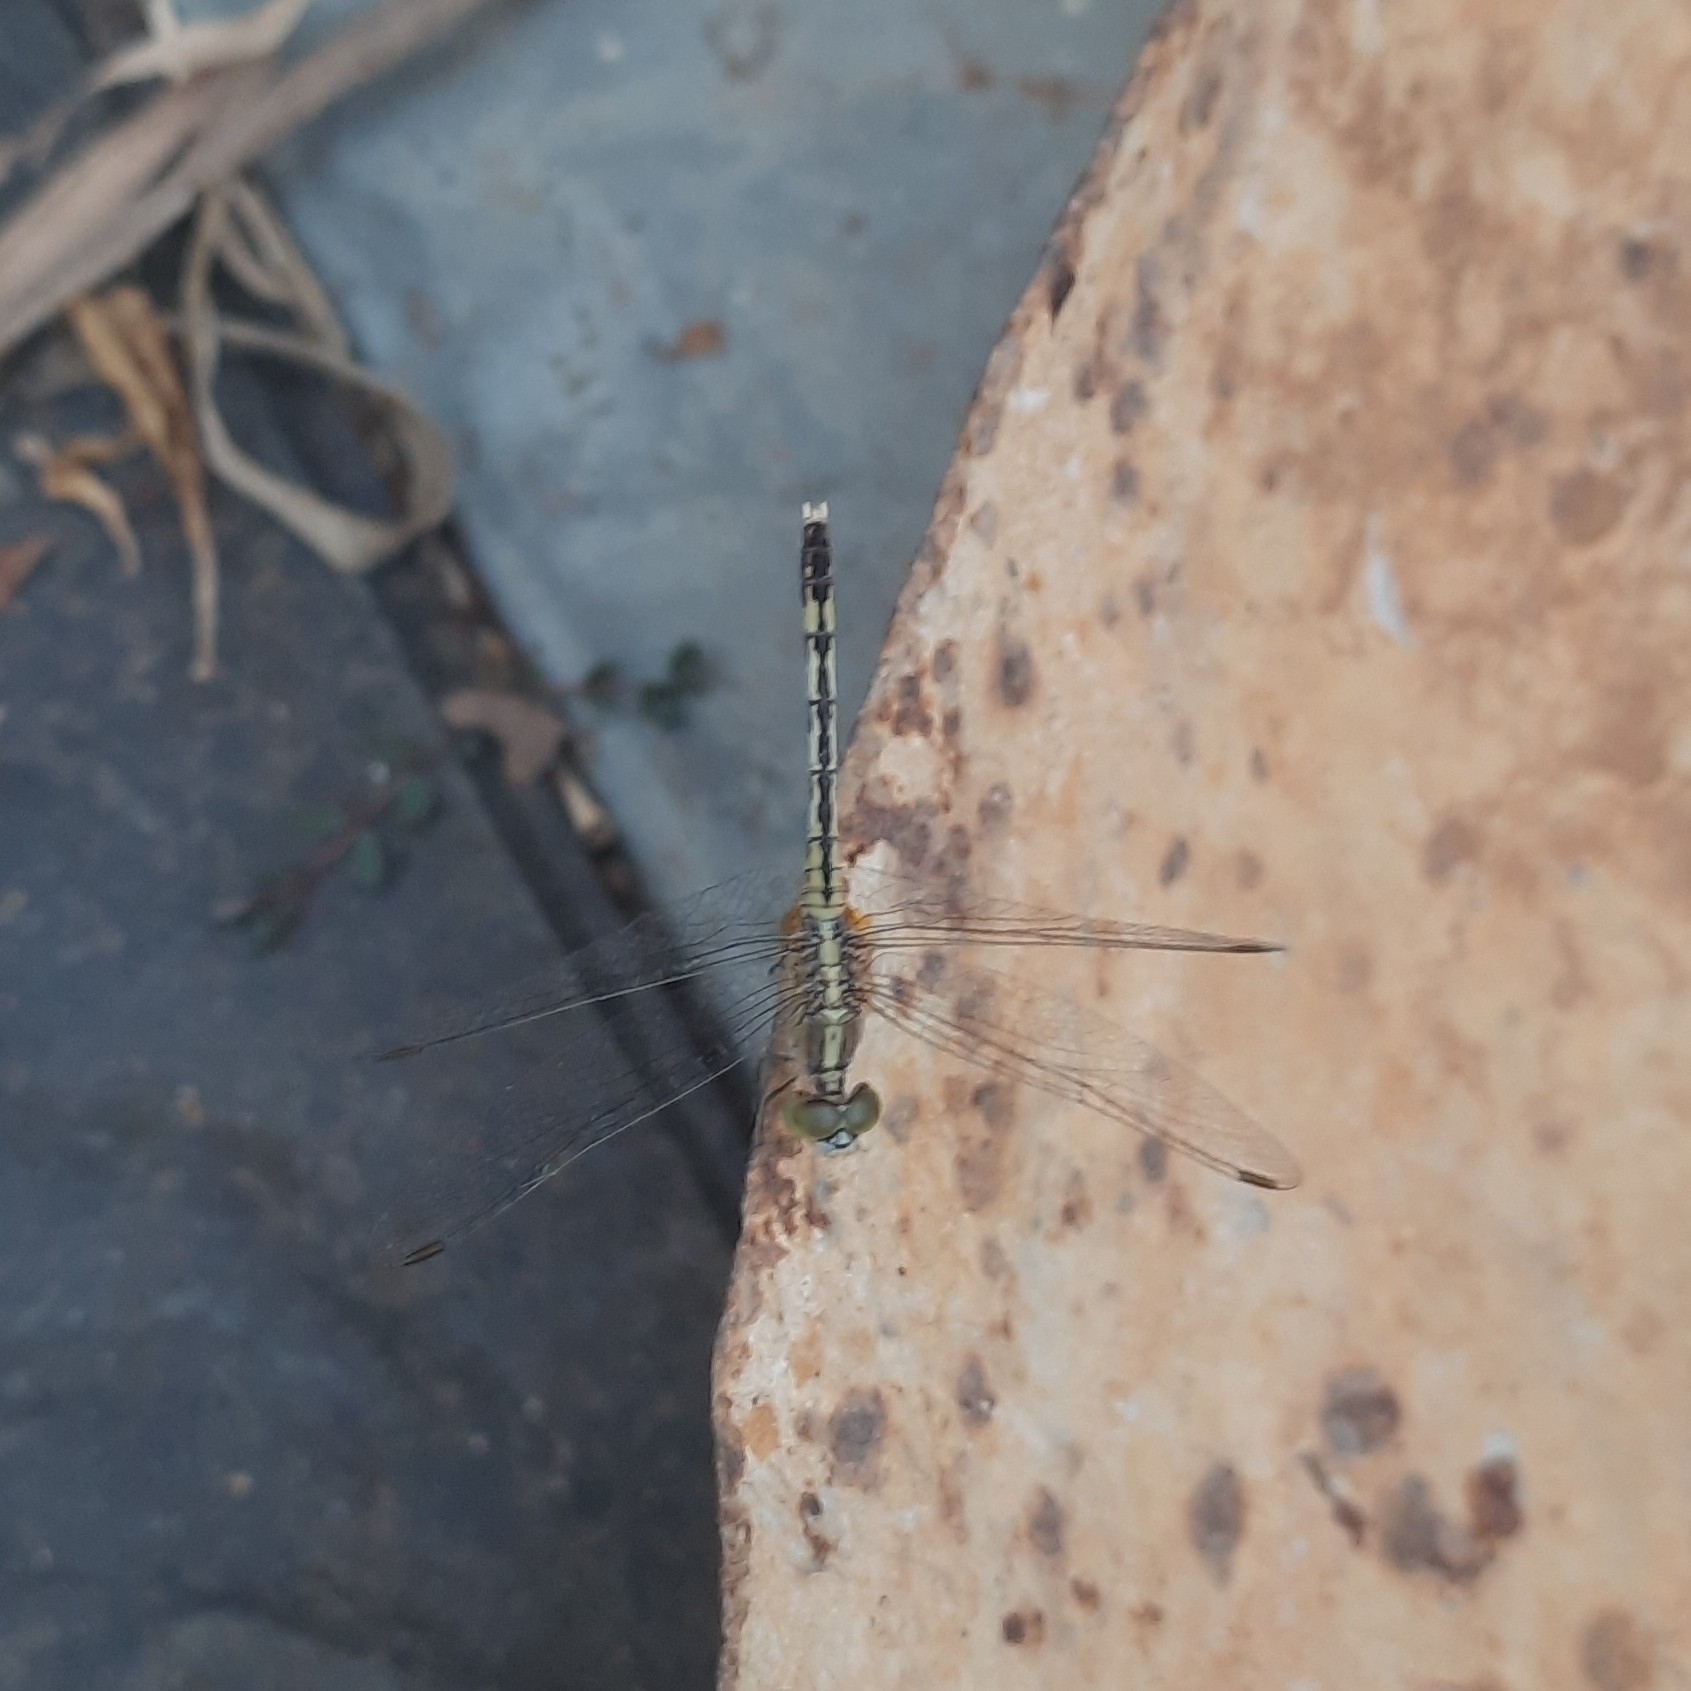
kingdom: Animalia
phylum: Arthropoda
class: Insecta
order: Odonata
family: Libellulidae
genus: Diplacodes
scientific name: Diplacodes trivialis
